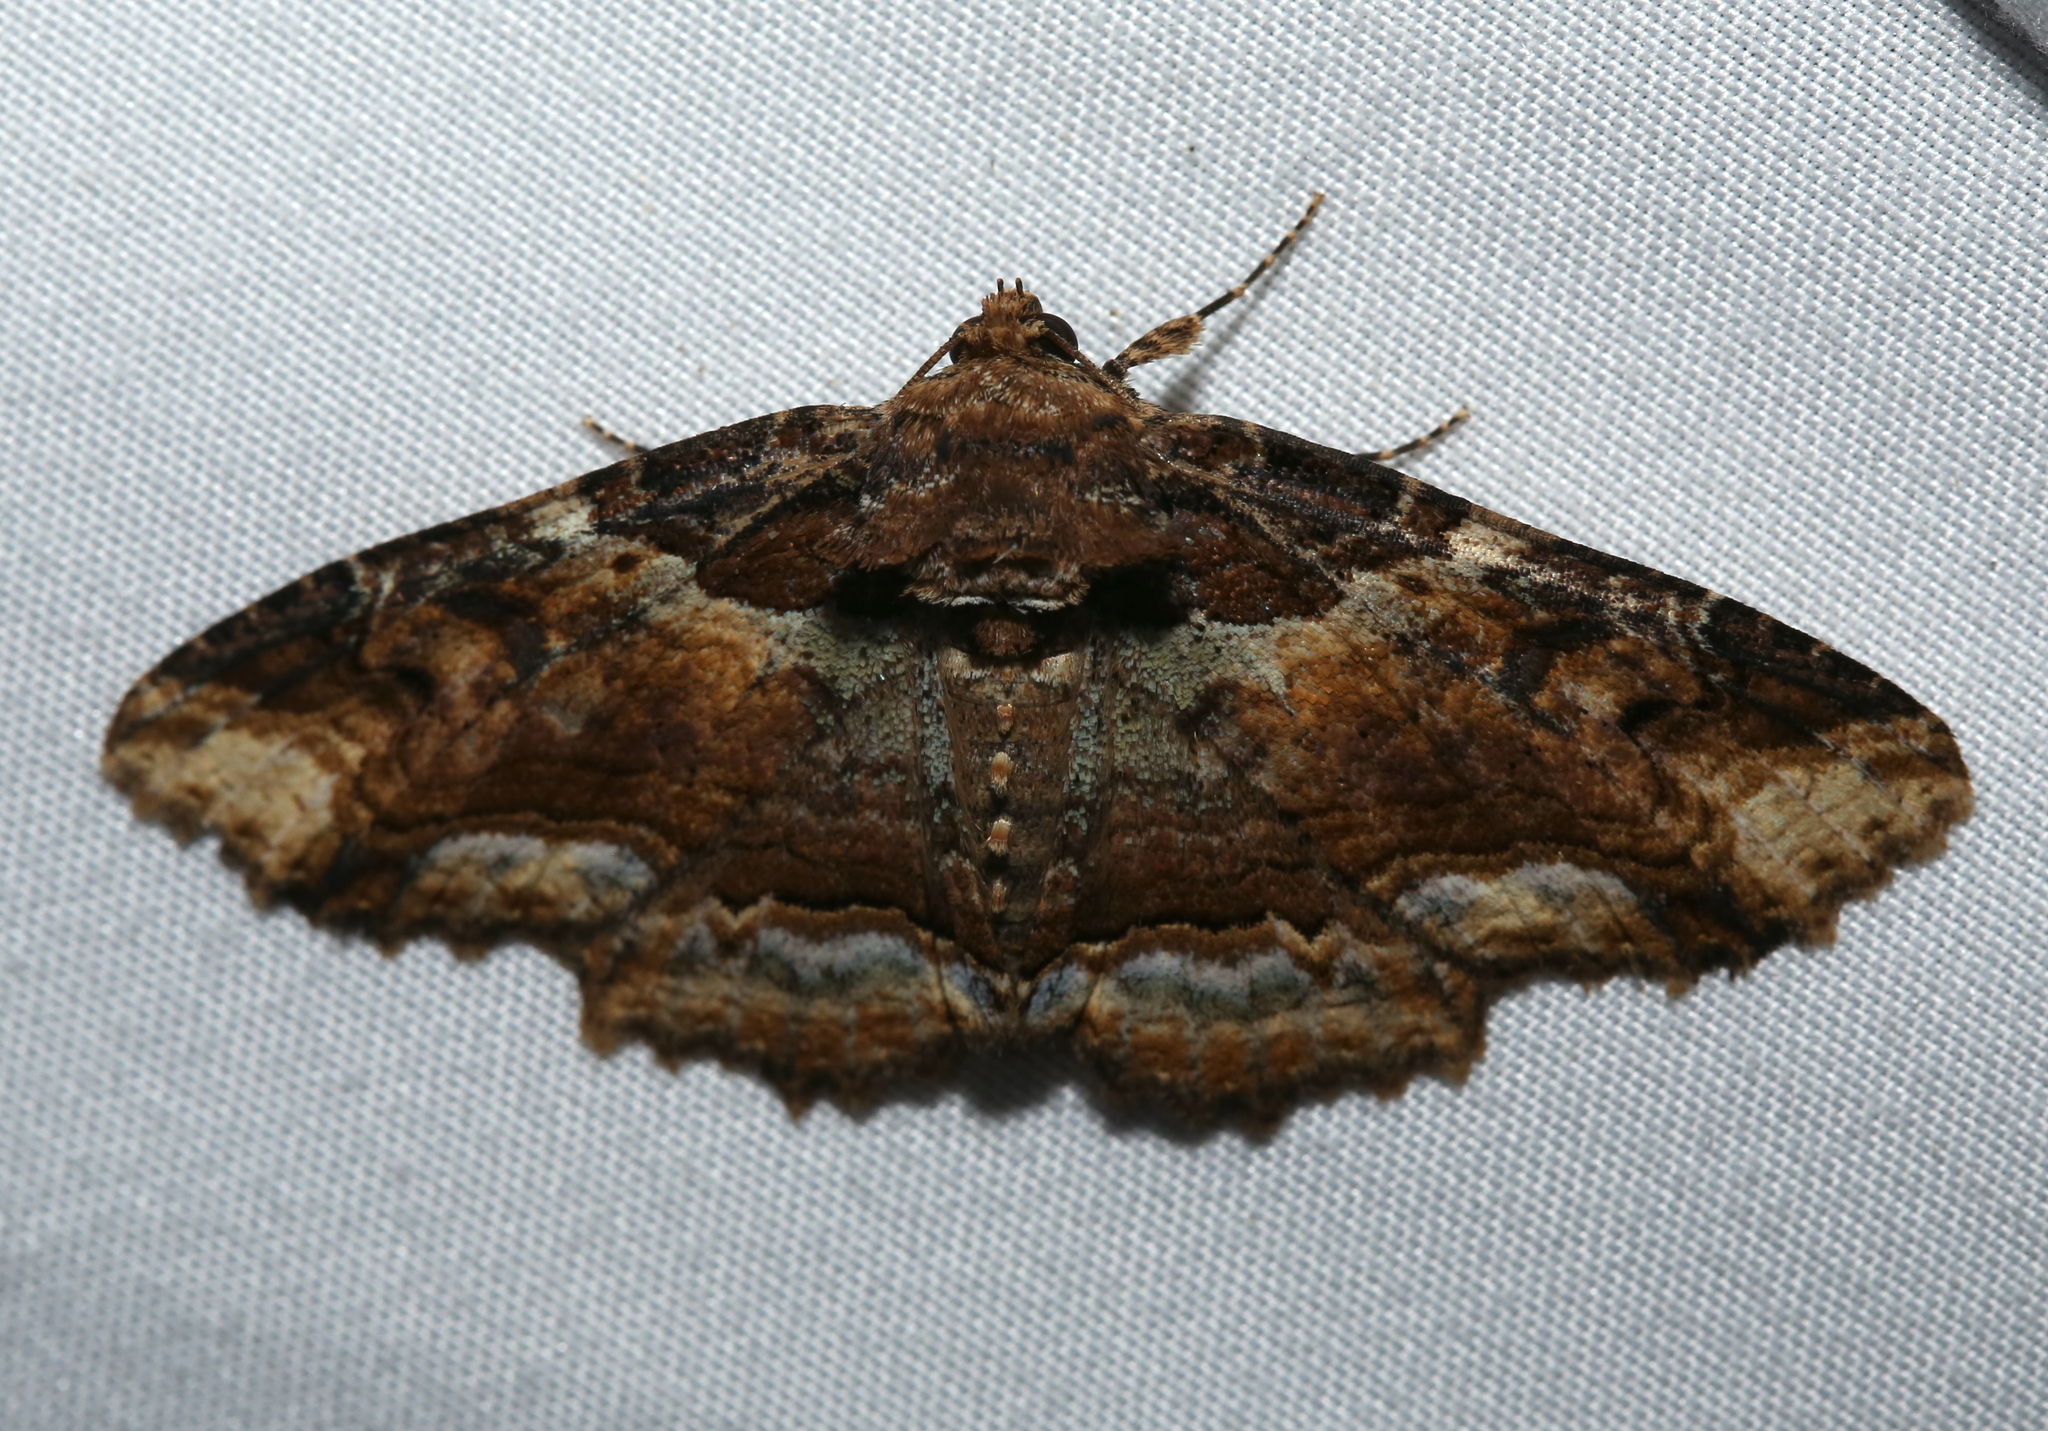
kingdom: Animalia
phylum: Arthropoda
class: Insecta
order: Lepidoptera
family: Erebidae
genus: Zale
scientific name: Zale minerea
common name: Colorful zale moth
